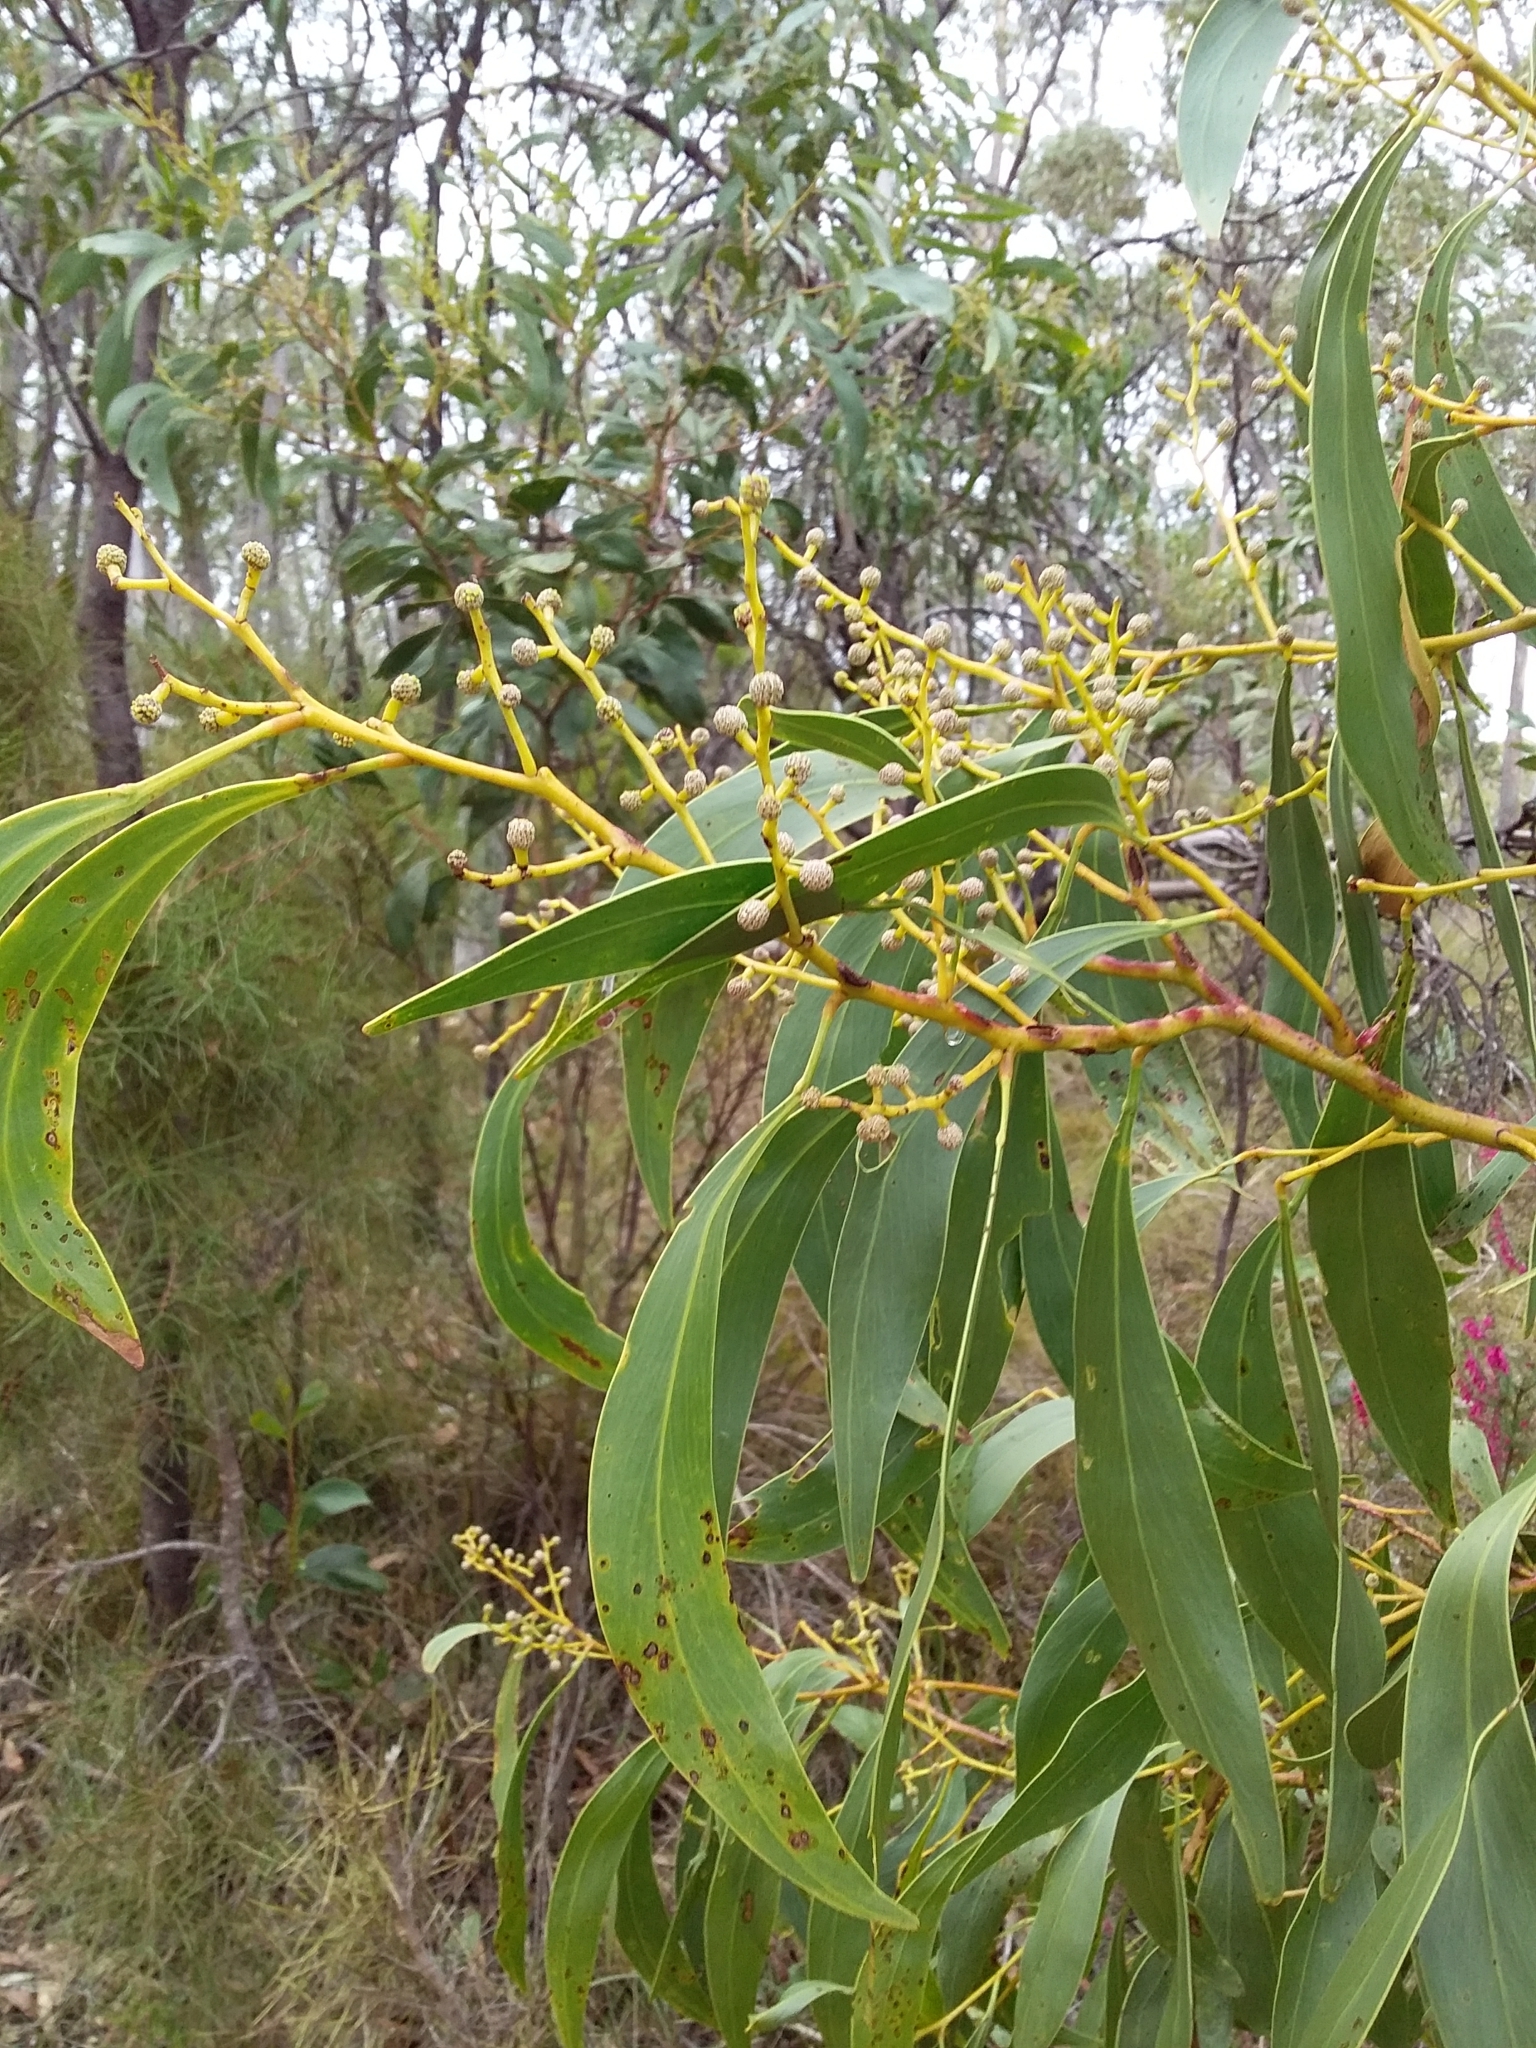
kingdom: Plantae
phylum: Tracheophyta
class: Magnoliopsida
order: Fabales
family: Fabaceae
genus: Acacia
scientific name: Acacia pycnantha
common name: Golden wattle
